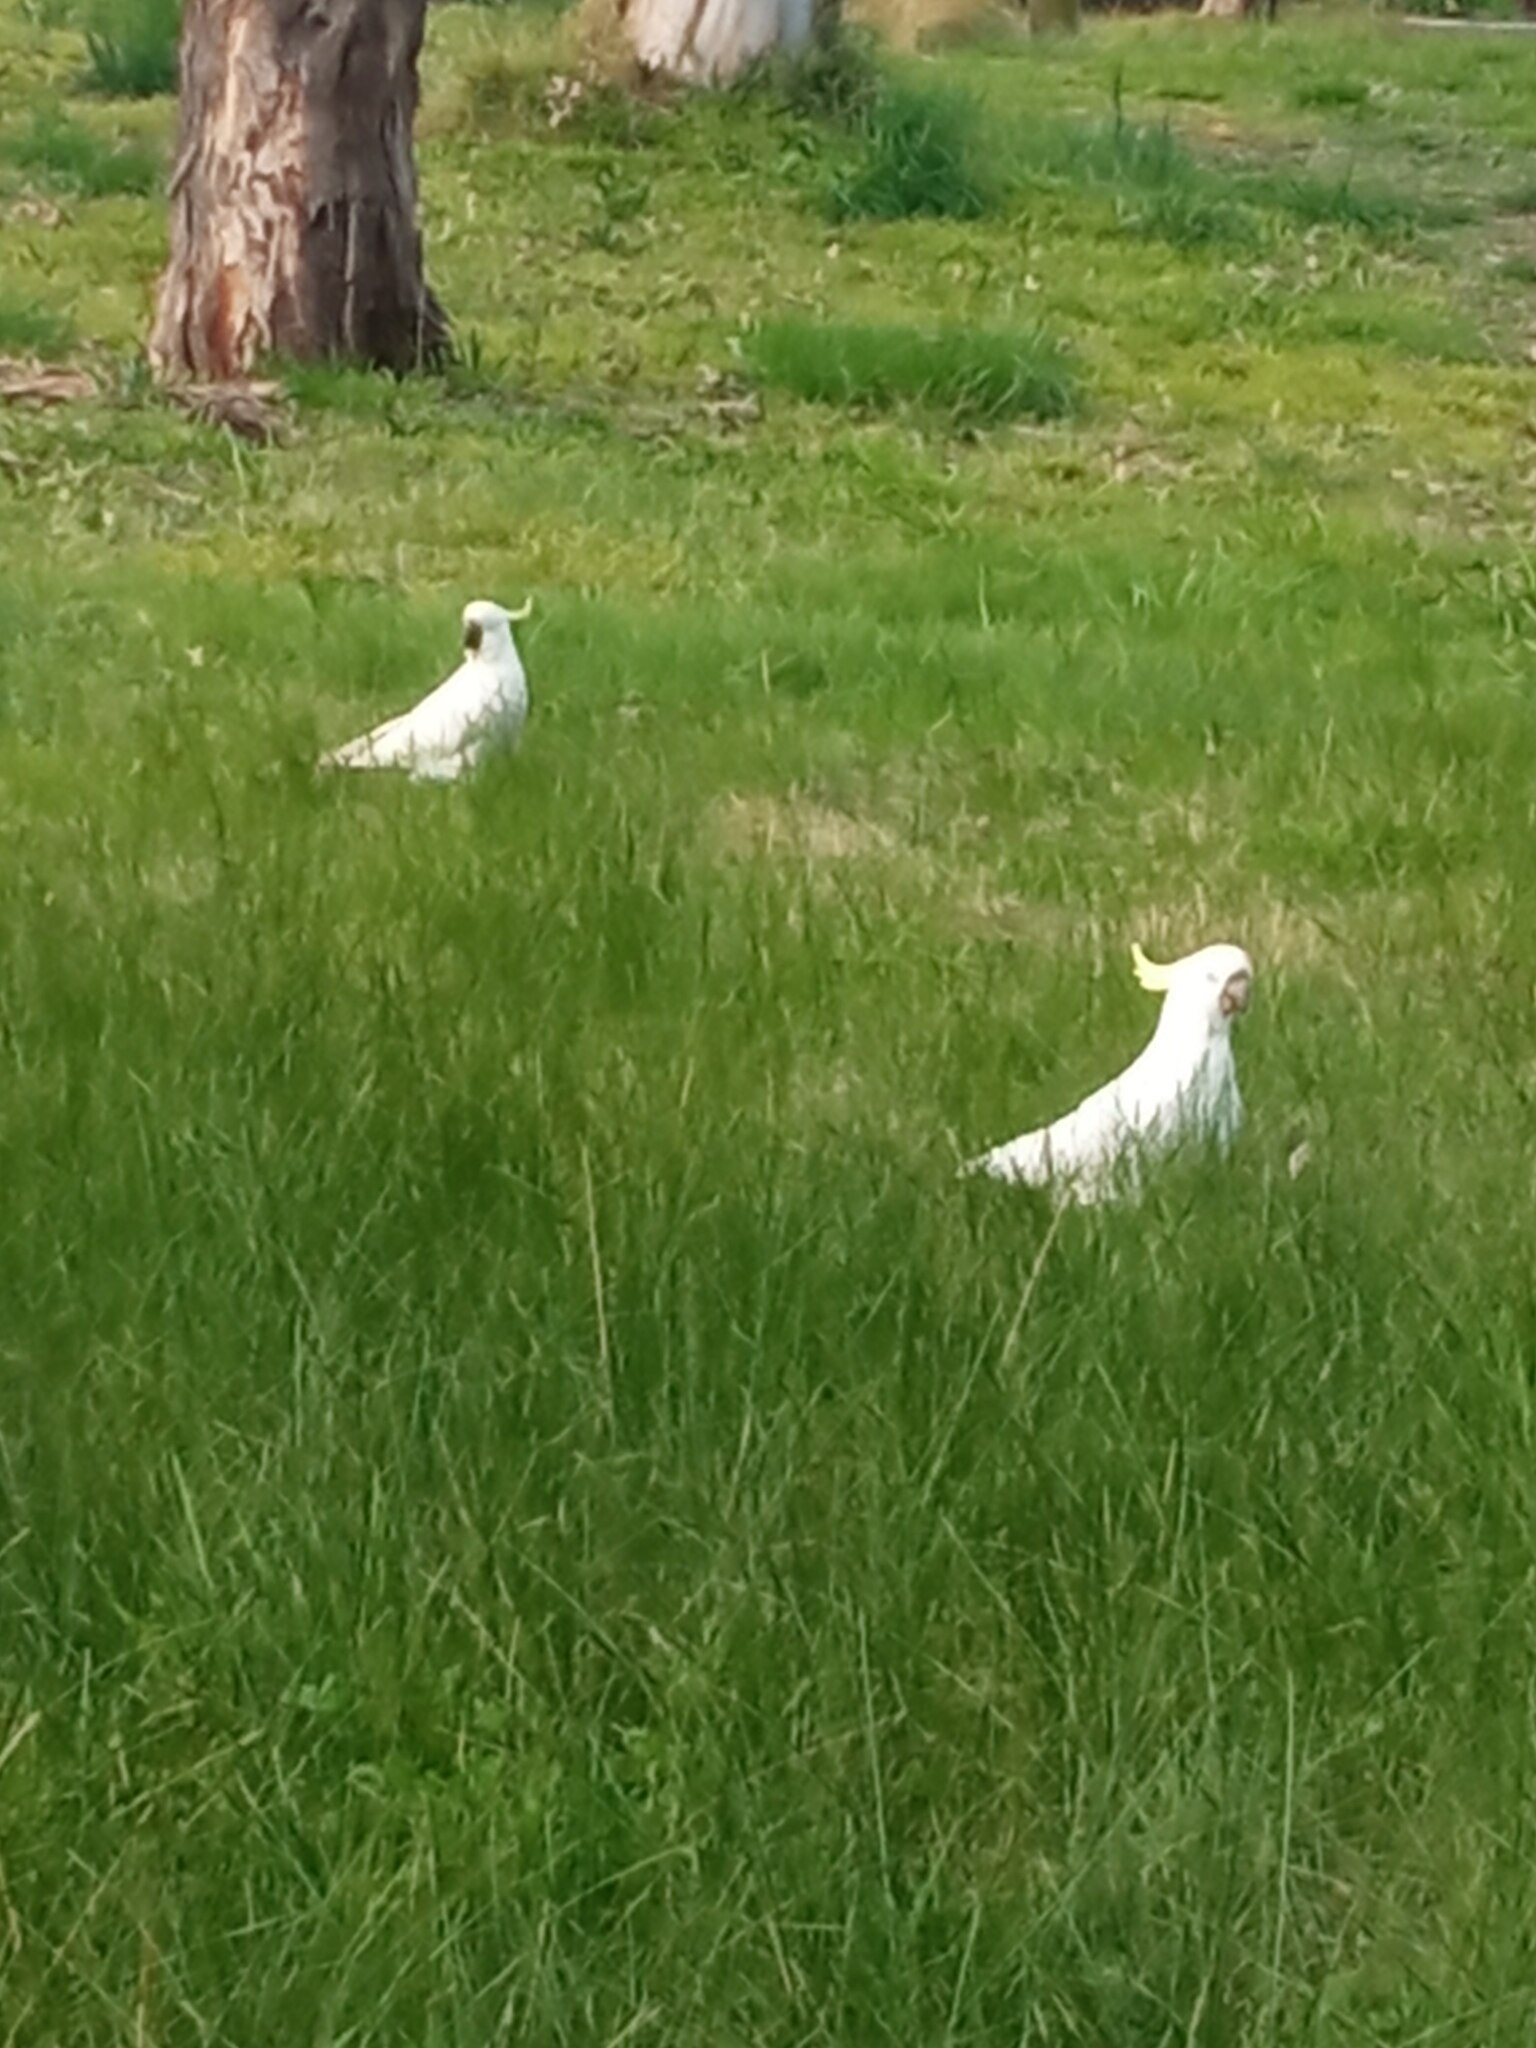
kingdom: Animalia
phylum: Chordata
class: Aves
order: Psittaciformes
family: Psittacidae
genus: Cacatua
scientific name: Cacatua galerita
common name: Sulphur-crested cockatoo
